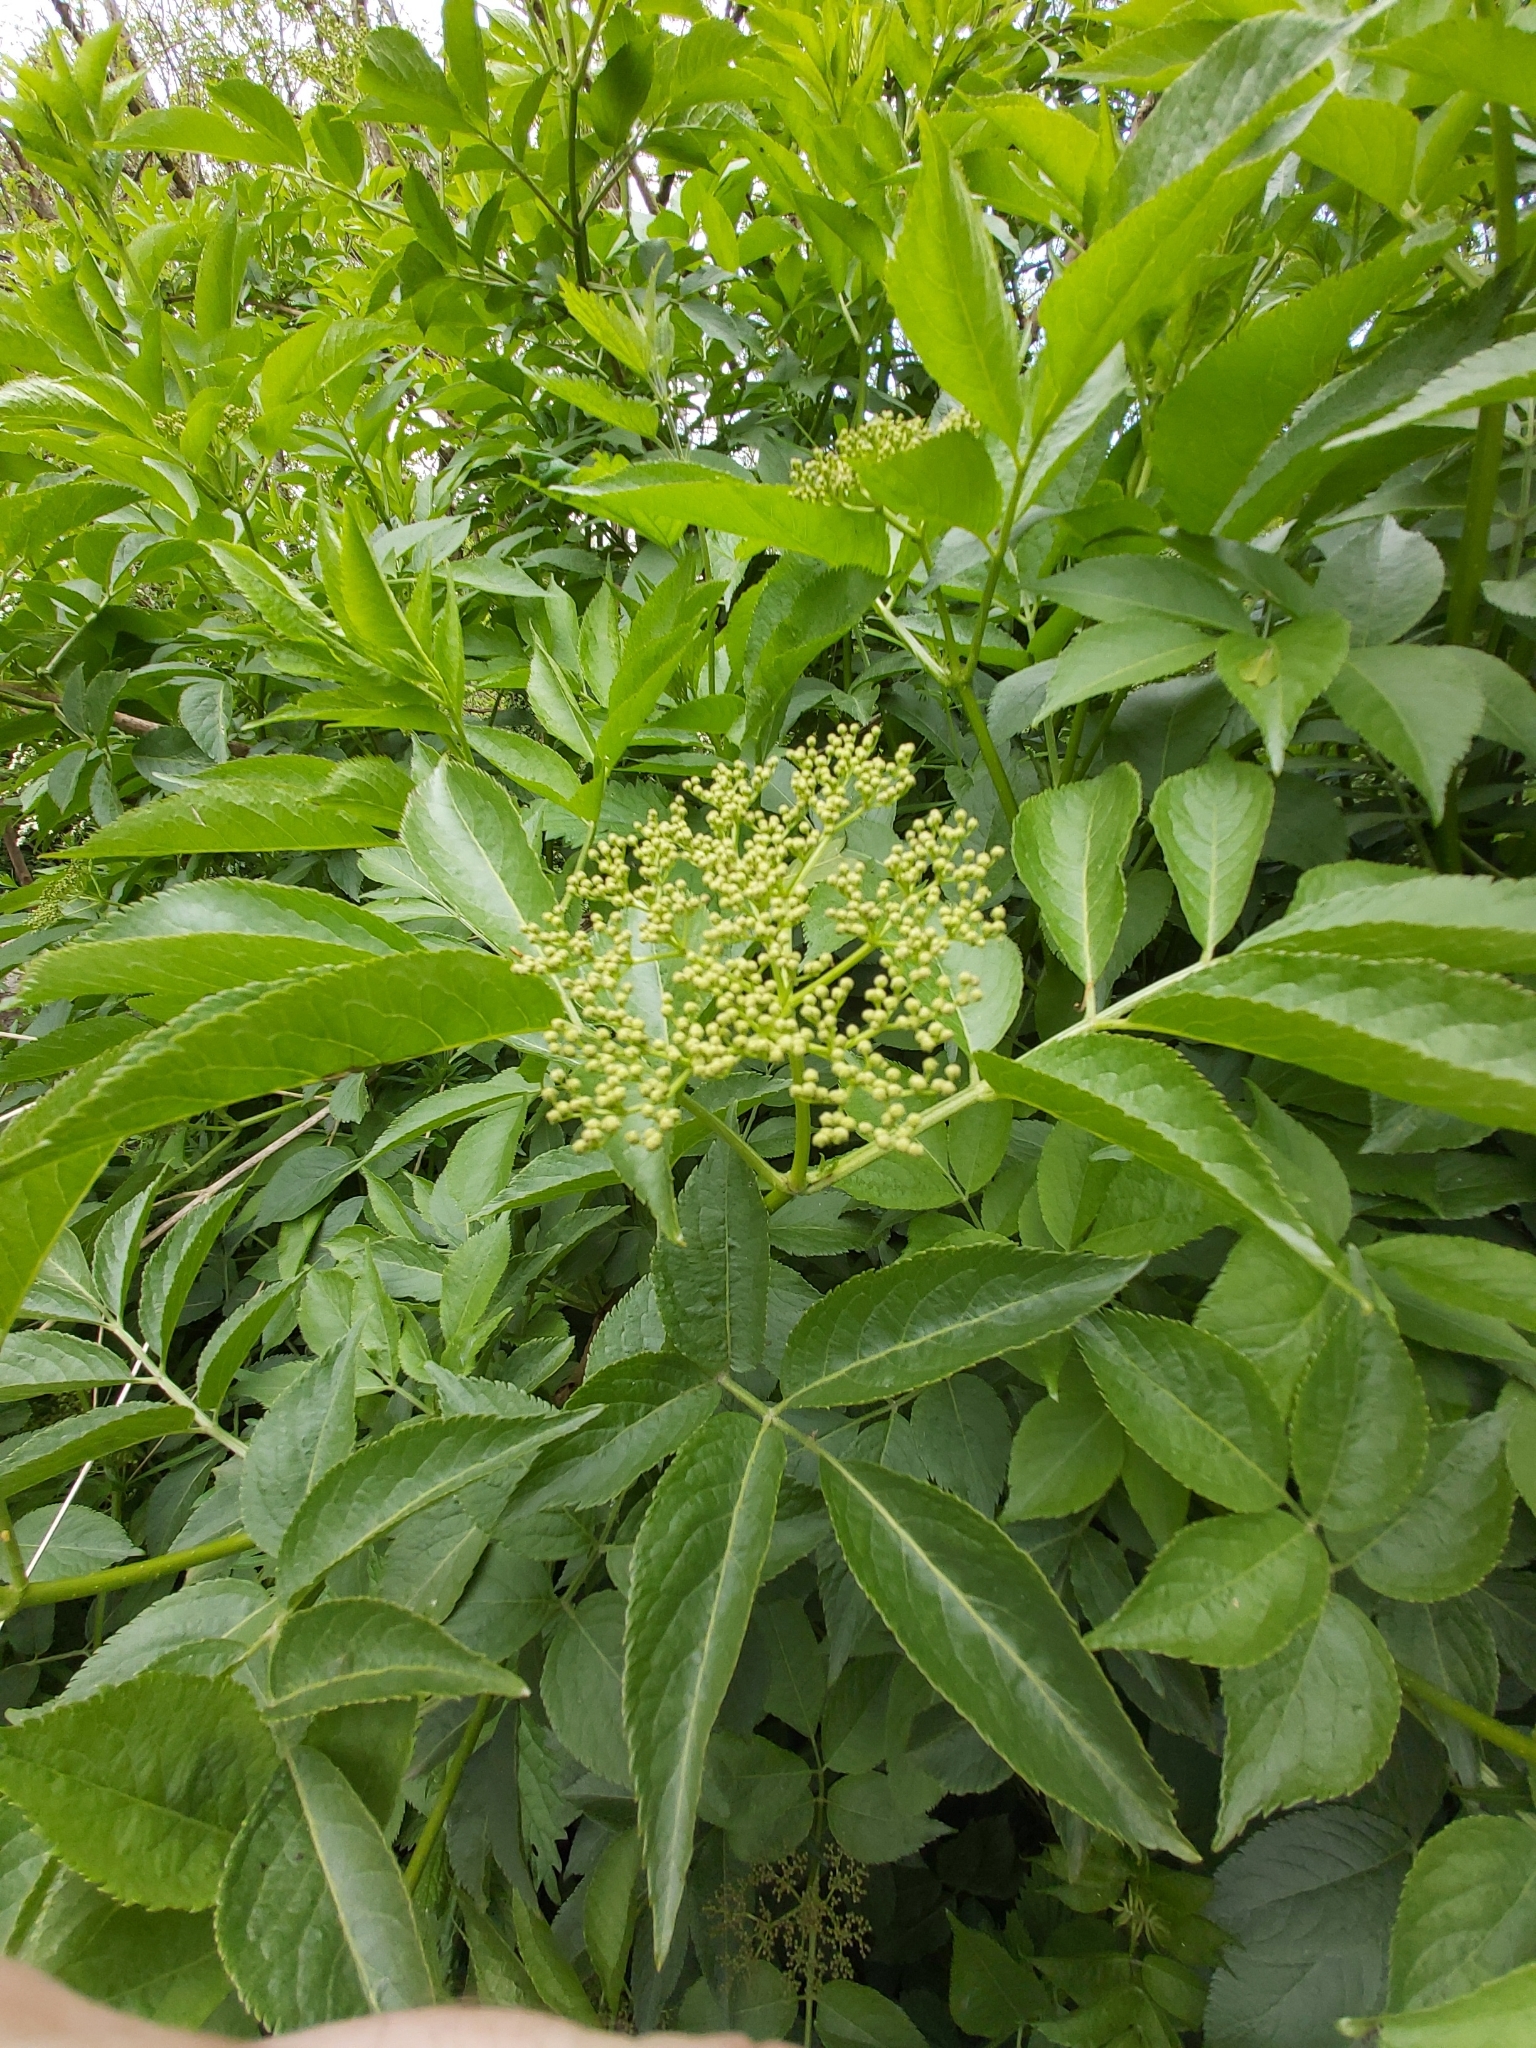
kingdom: Plantae
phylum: Tracheophyta
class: Magnoliopsida
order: Dipsacales
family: Viburnaceae
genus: Sambucus
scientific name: Sambucus nigra
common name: Elder
